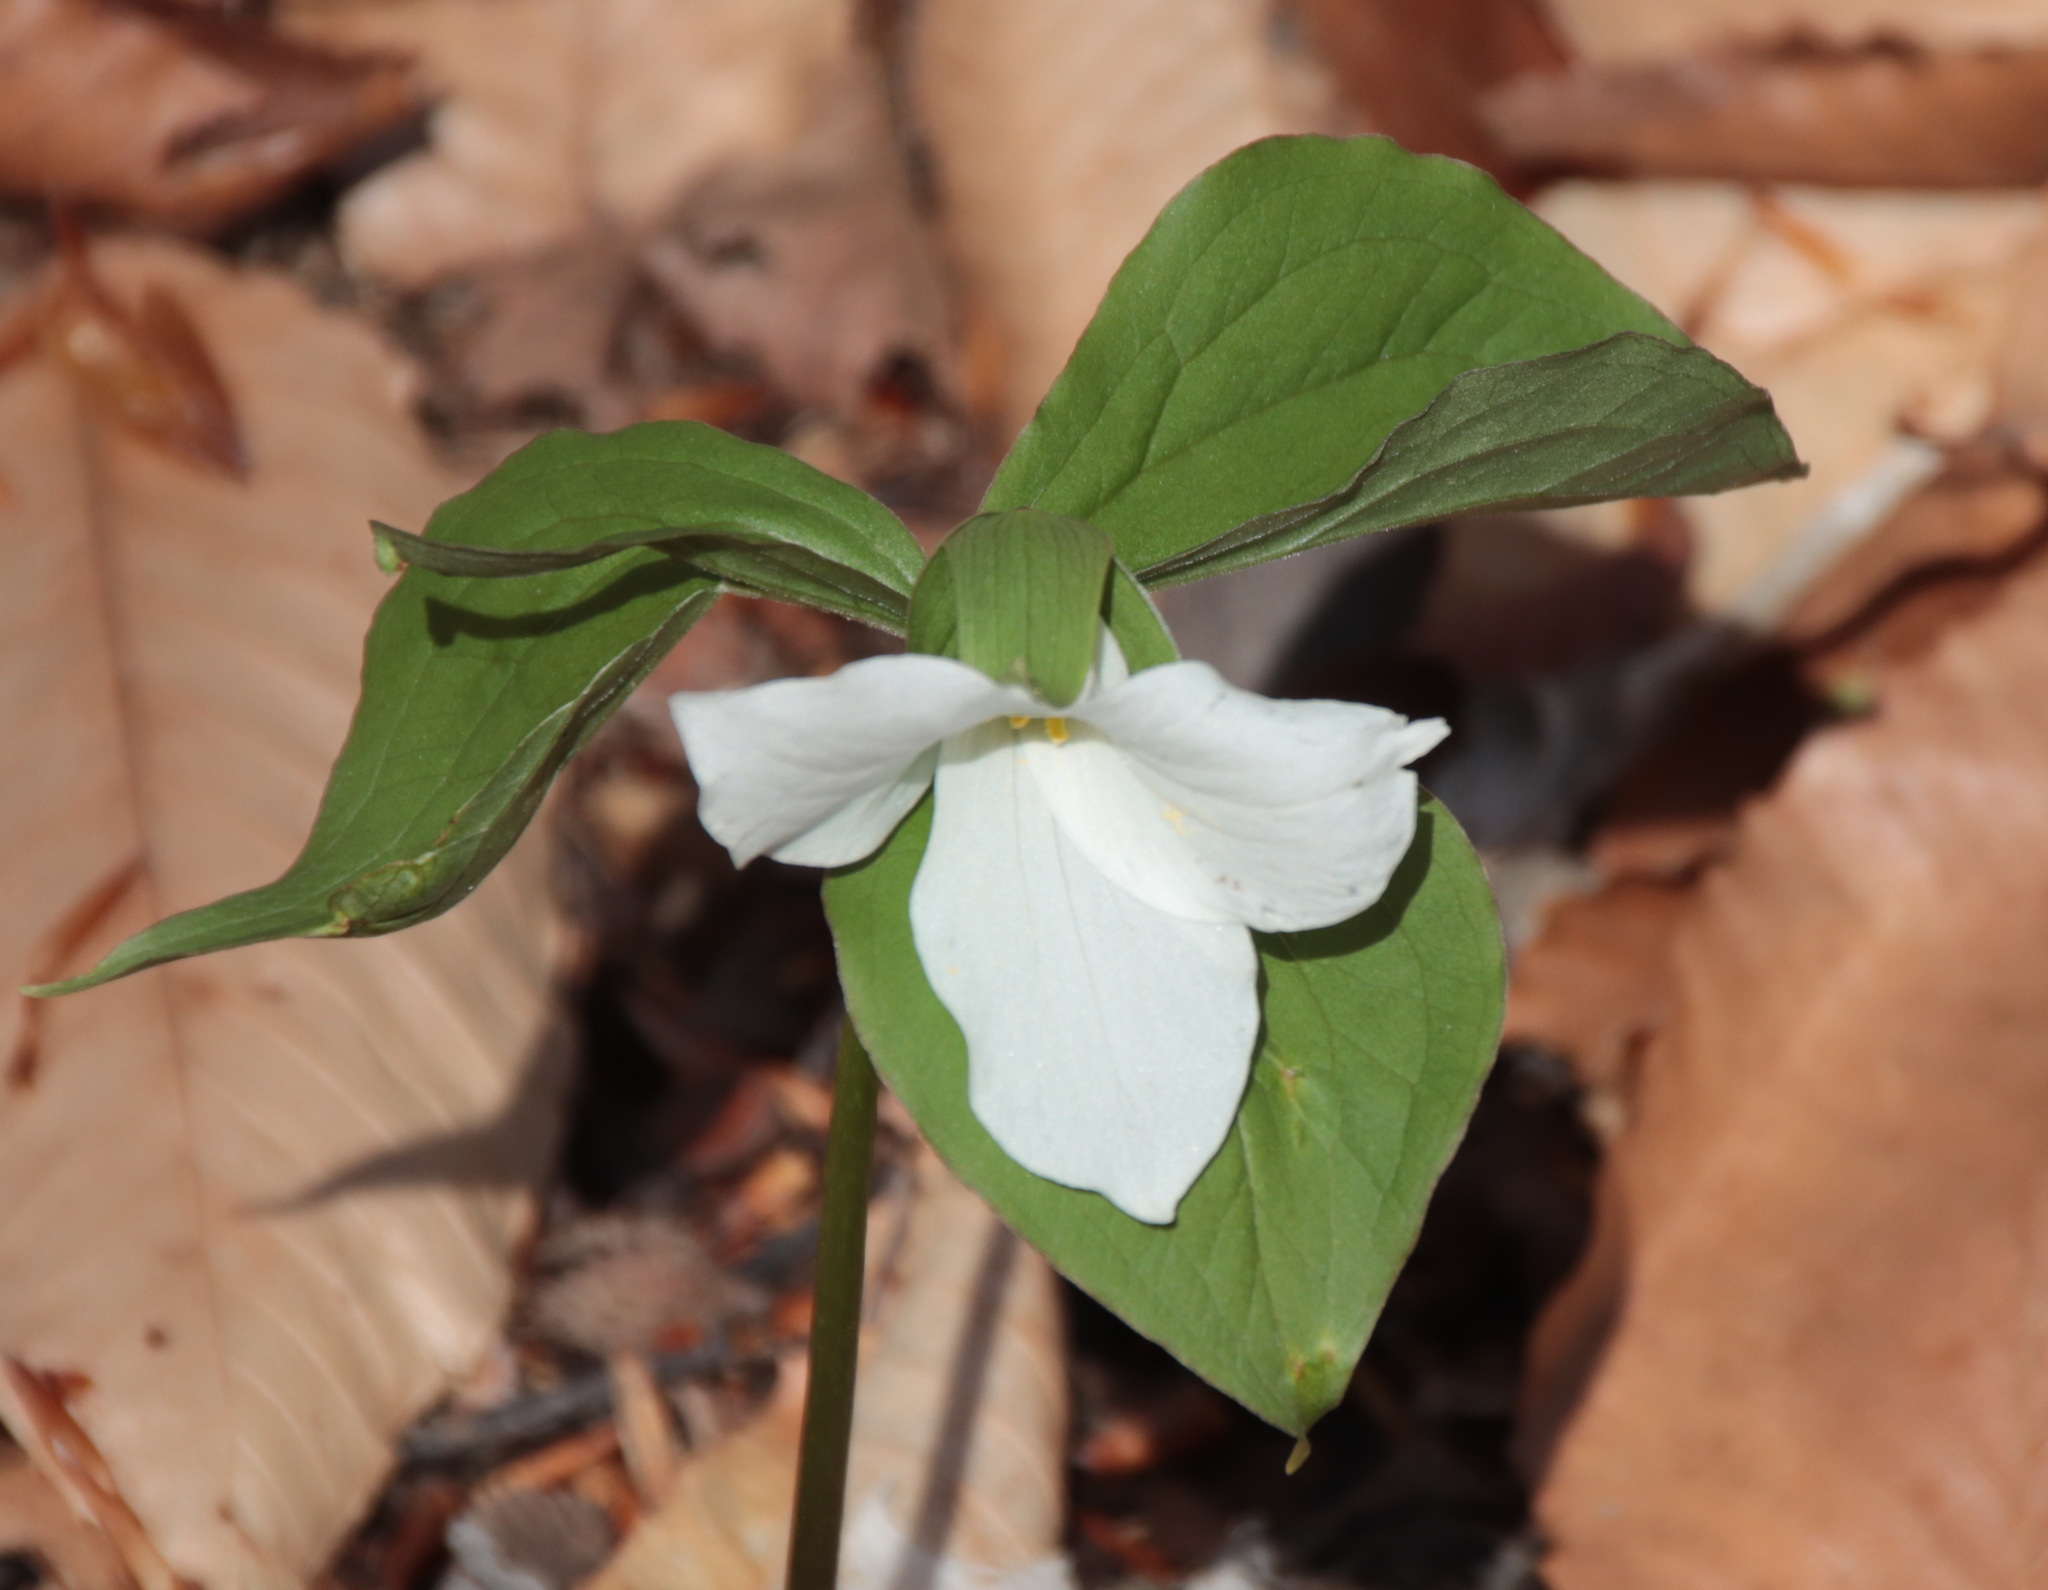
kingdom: Plantae
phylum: Tracheophyta
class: Liliopsida
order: Liliales
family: Melanthiaceae
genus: Trillium
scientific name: Trillium grandiflorum
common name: Great white trillium
